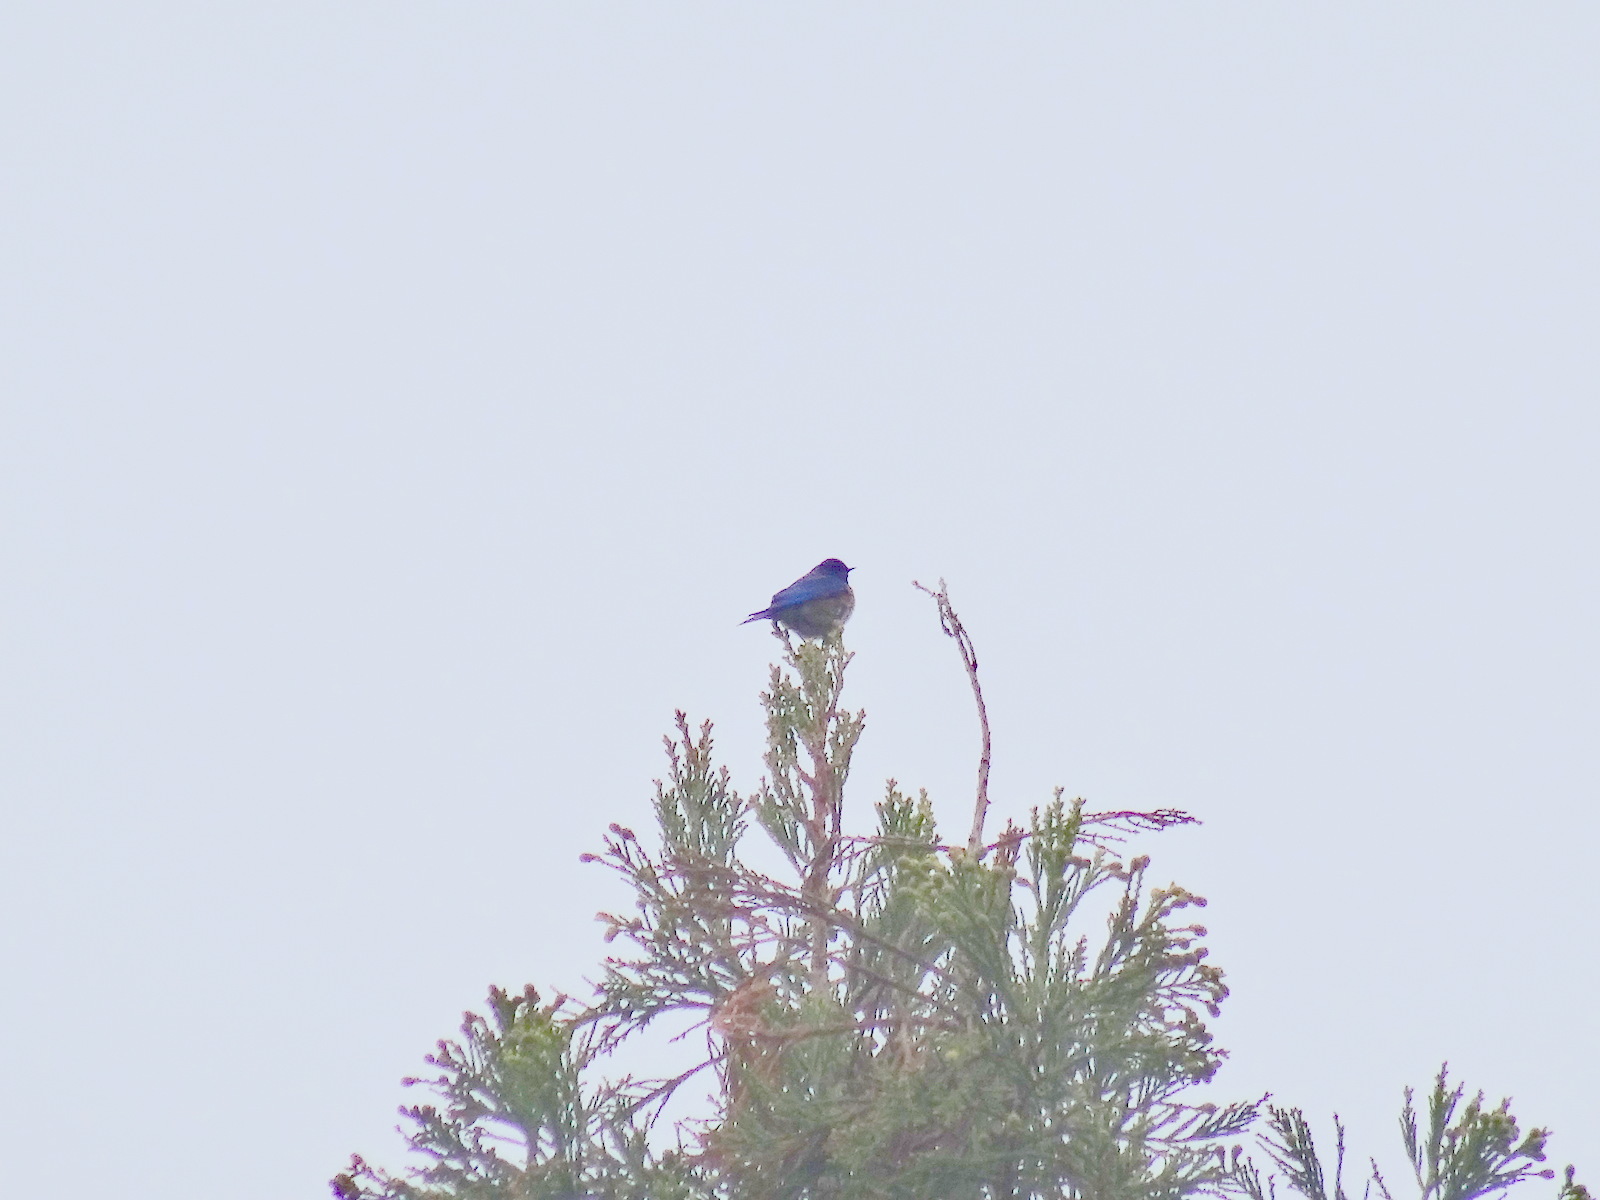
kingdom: Animalia
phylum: Chordata
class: Aves
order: Passeriformes
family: Turdidae
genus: Sialia
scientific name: Sialia mexicana
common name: Western bluebird
